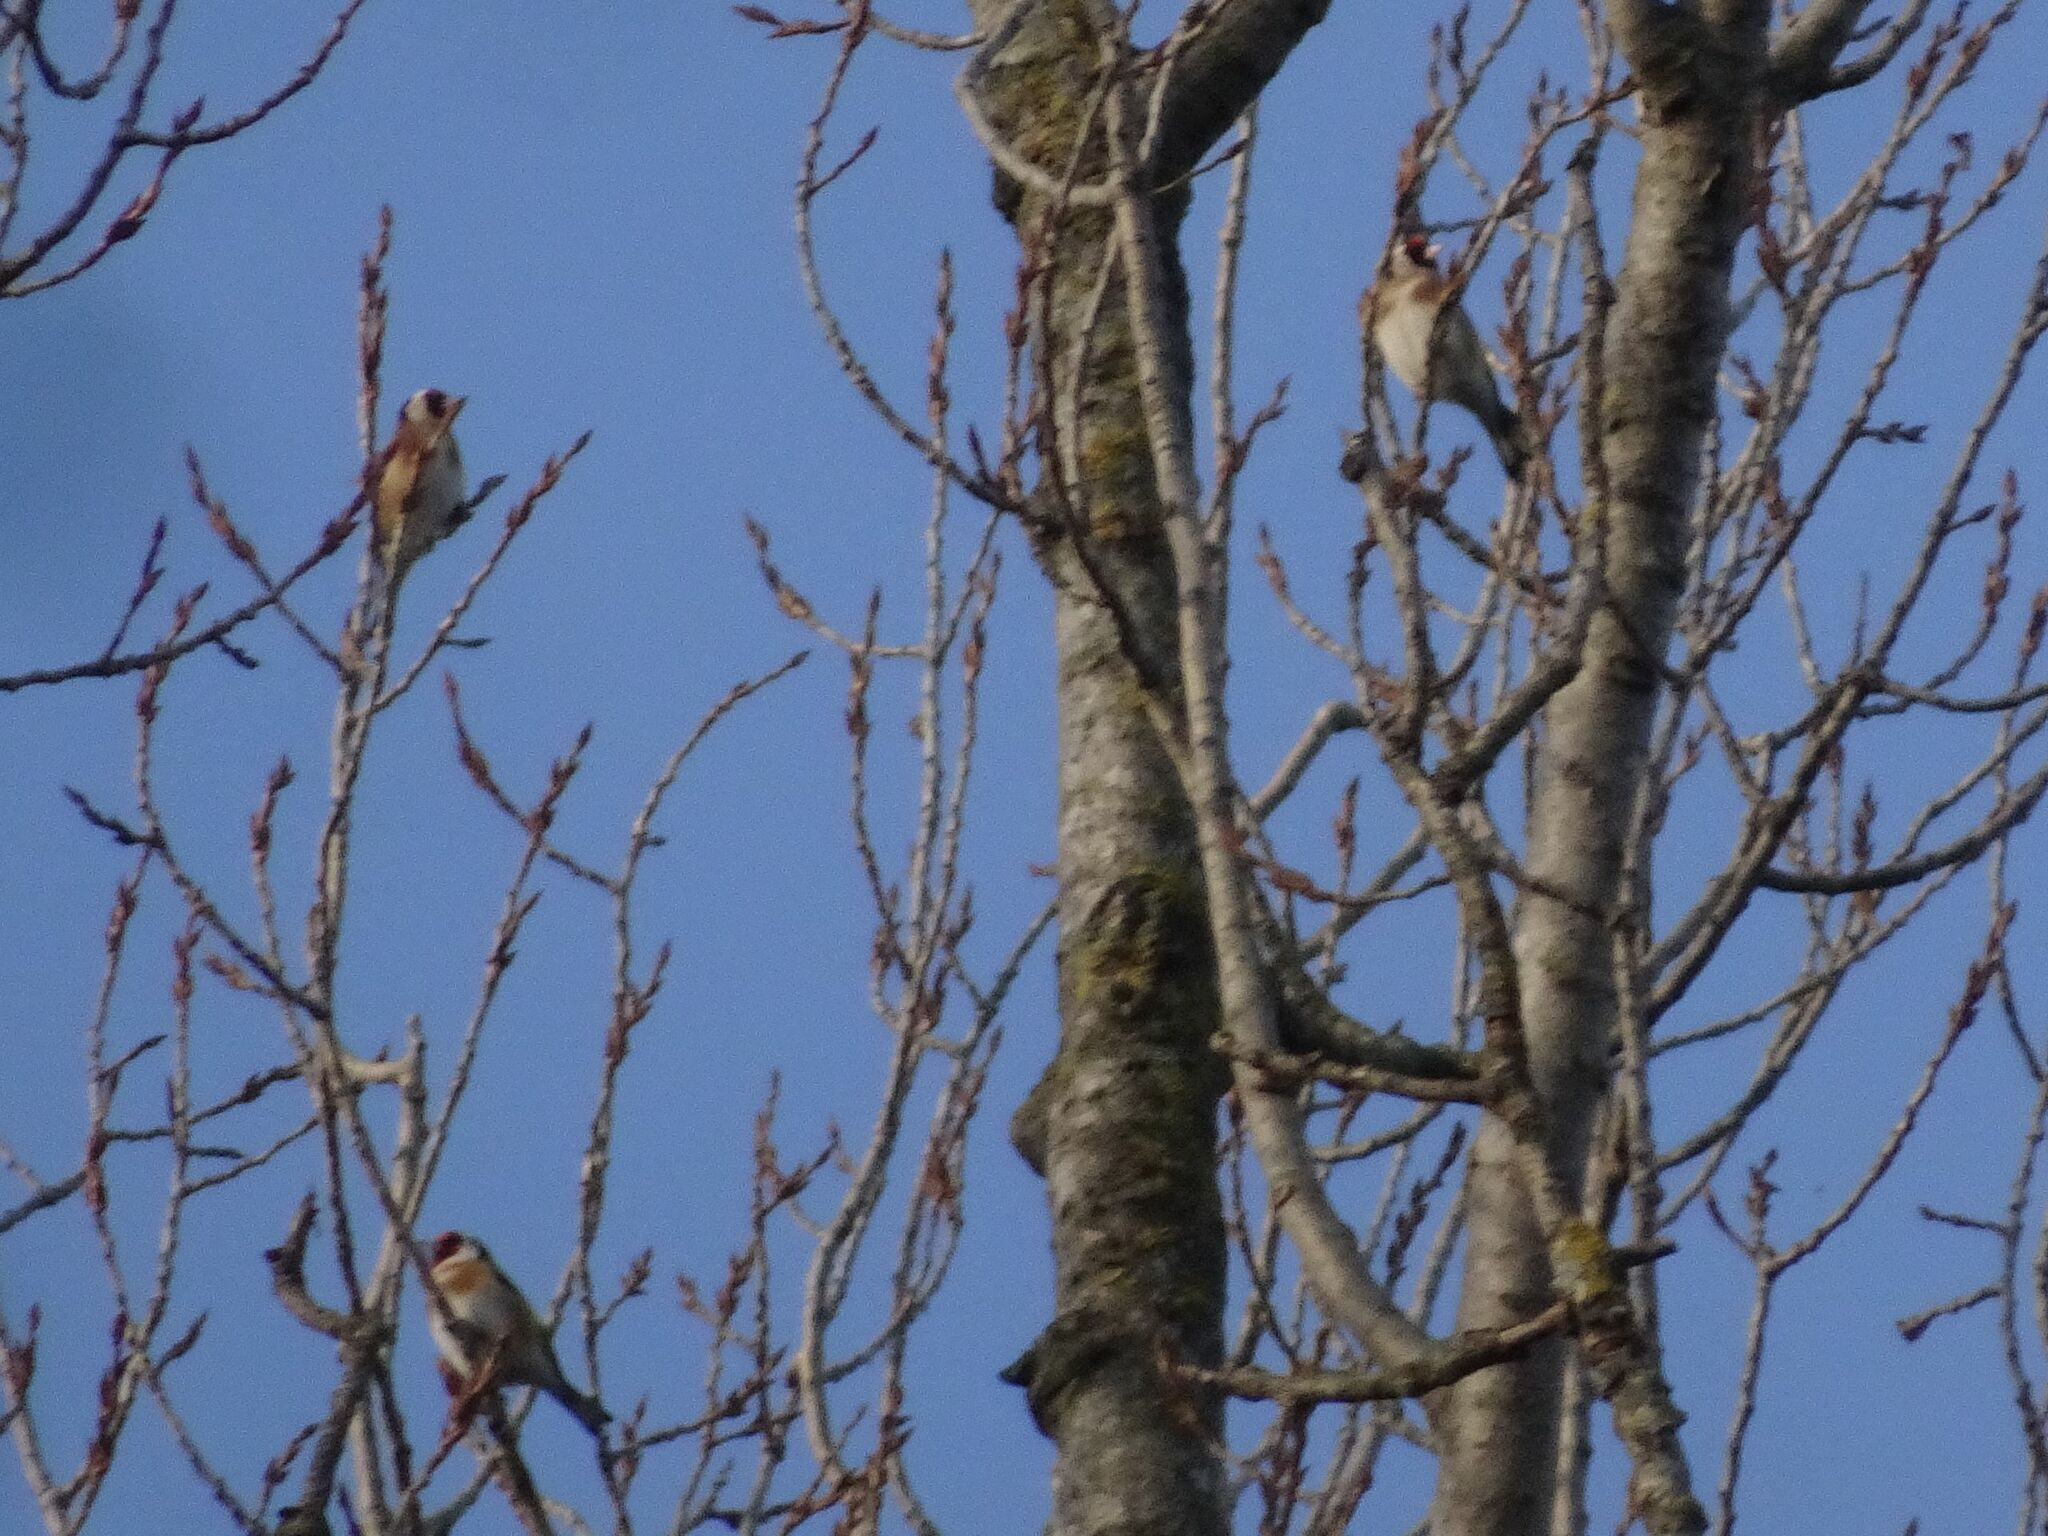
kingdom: Animalia
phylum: Chordata
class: Aves
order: Passeriformes
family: Fringillidae
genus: Carduelis
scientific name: Carduelis carduelis
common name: European goldfinch
